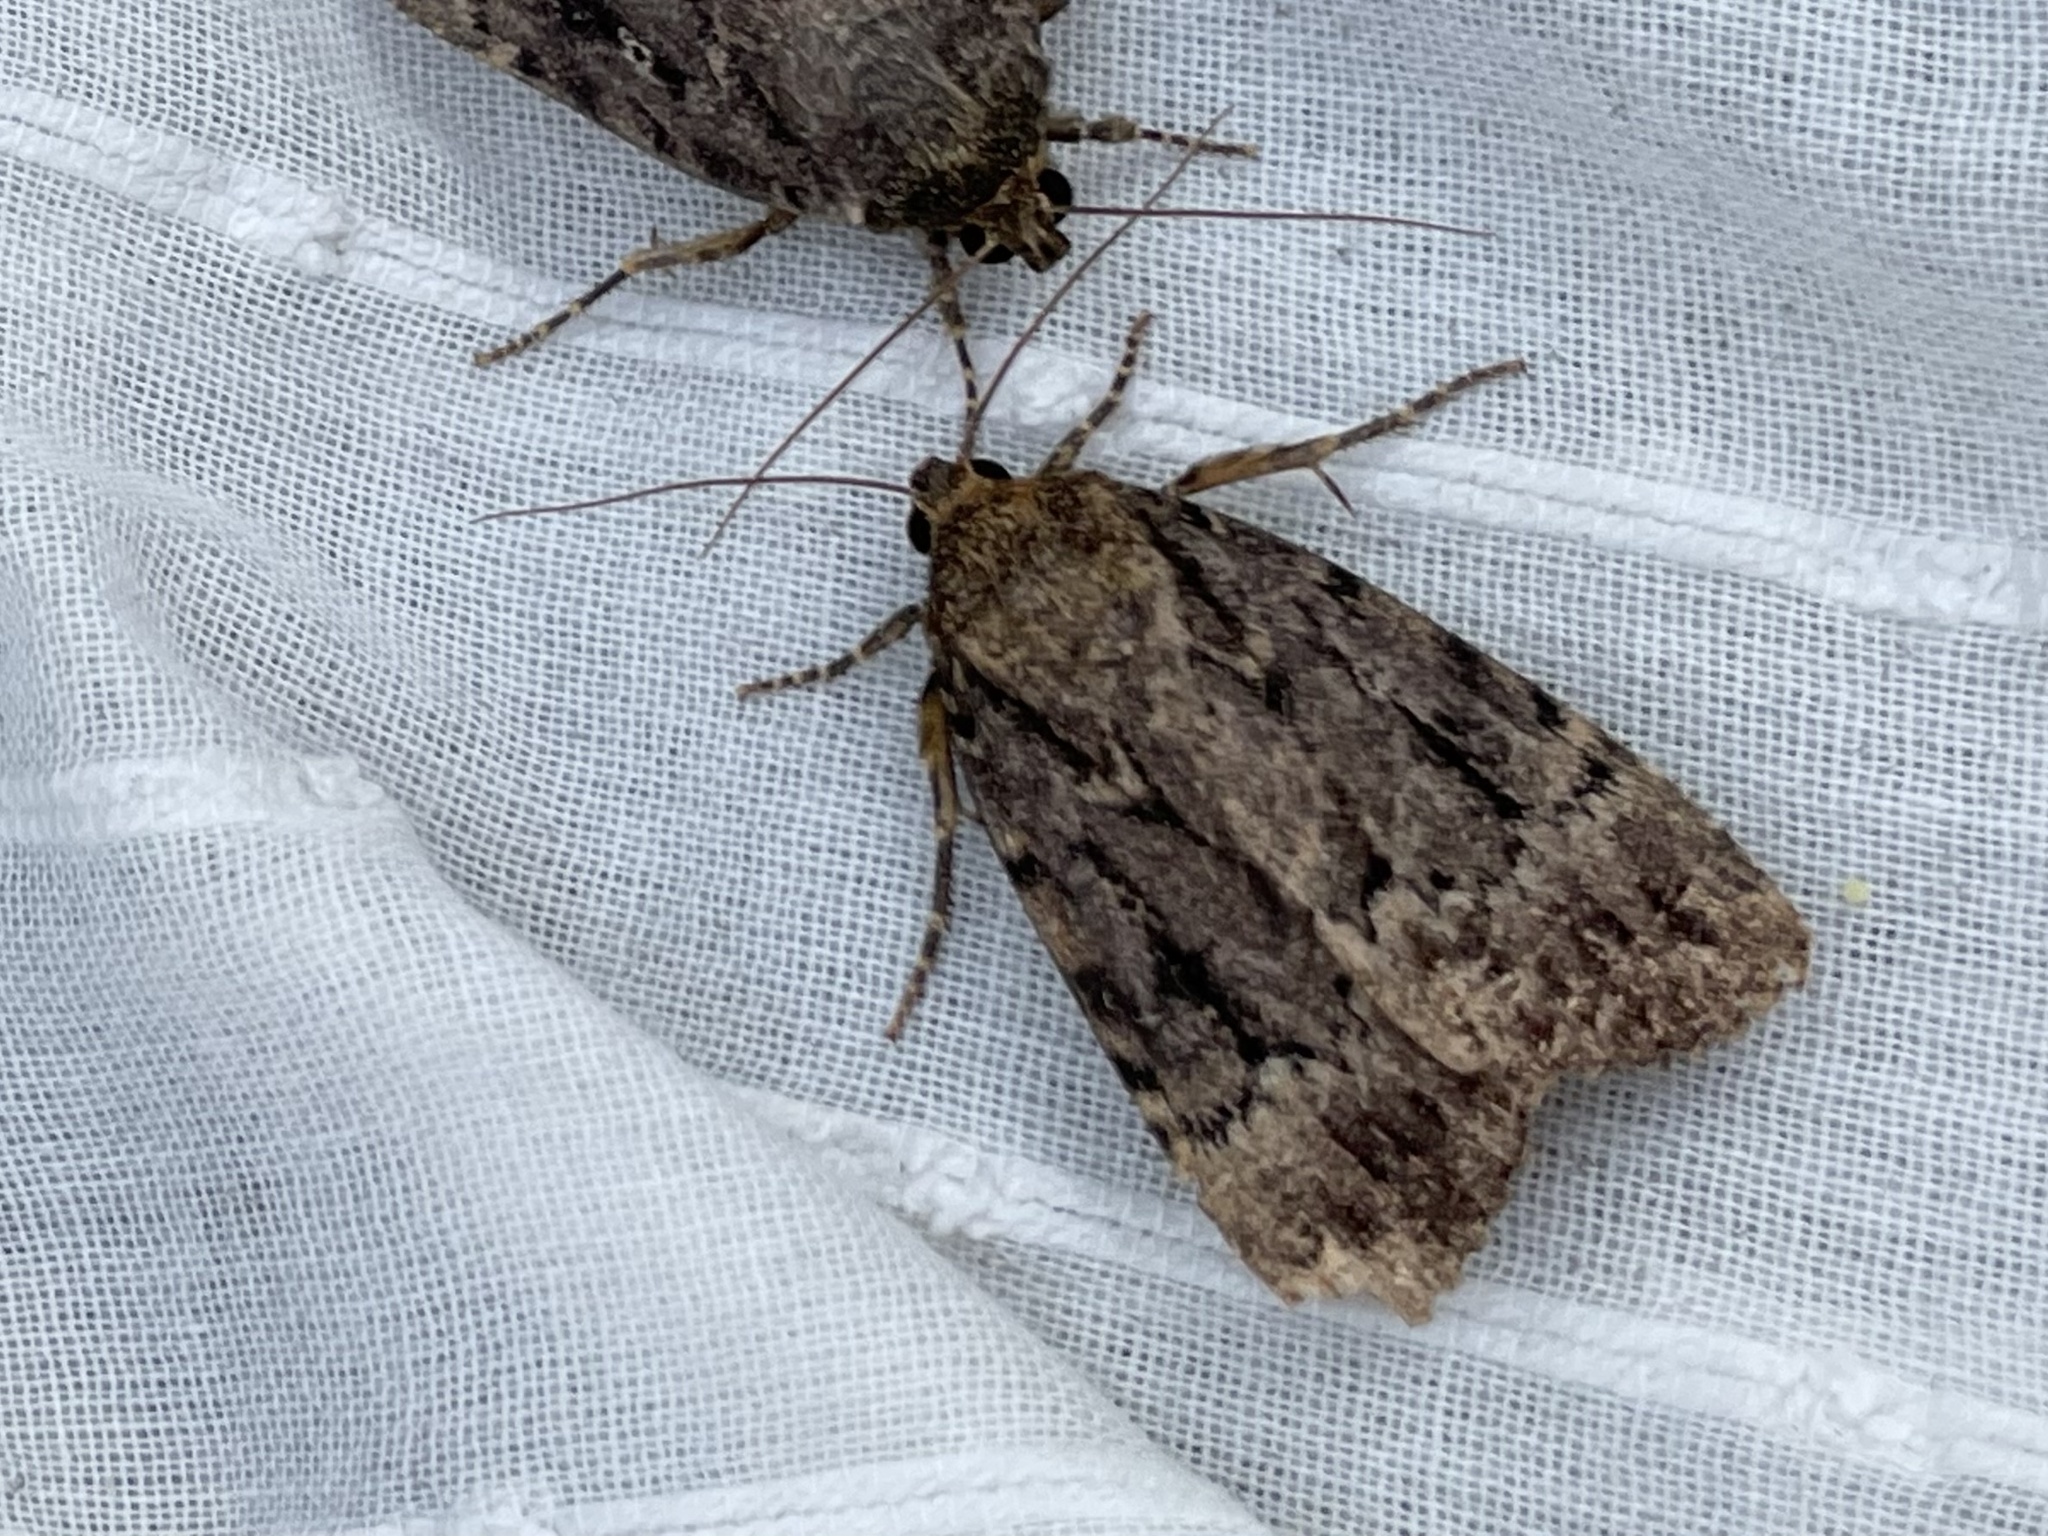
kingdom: Animalia
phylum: Arthropoda
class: Insecta
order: Lepidoptera
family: Noctuidae
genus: Amphipyra
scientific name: Amphipyra
